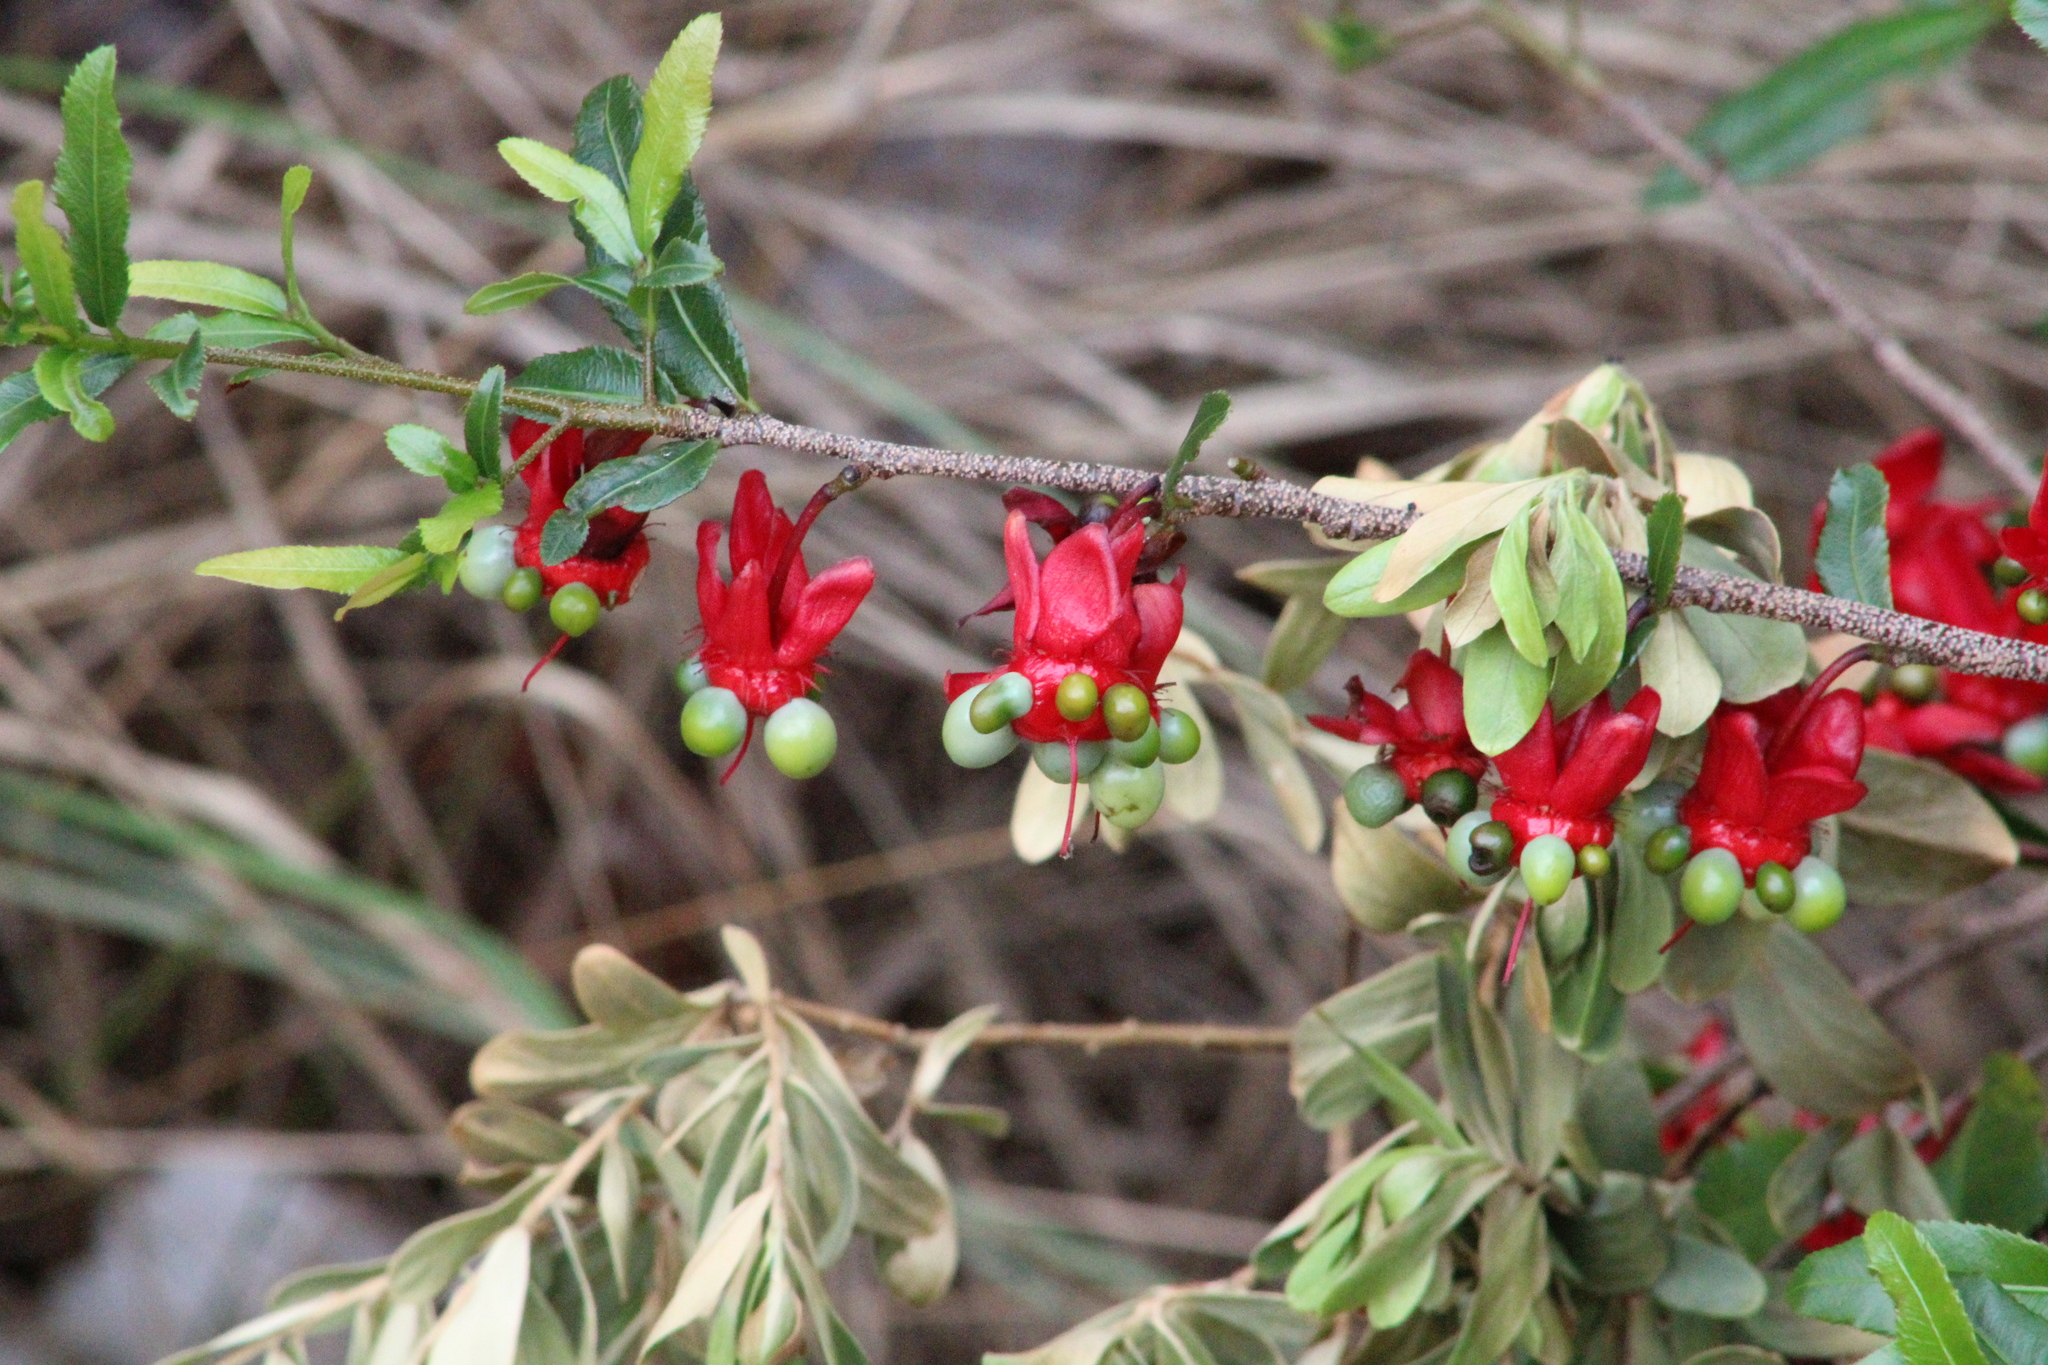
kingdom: Plantae
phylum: Tracheophyta
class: Magnoliopsida
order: Malpighiales
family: Ochnaceae
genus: Ochna
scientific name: Ochna serrulata
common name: Mickey mouse plant
